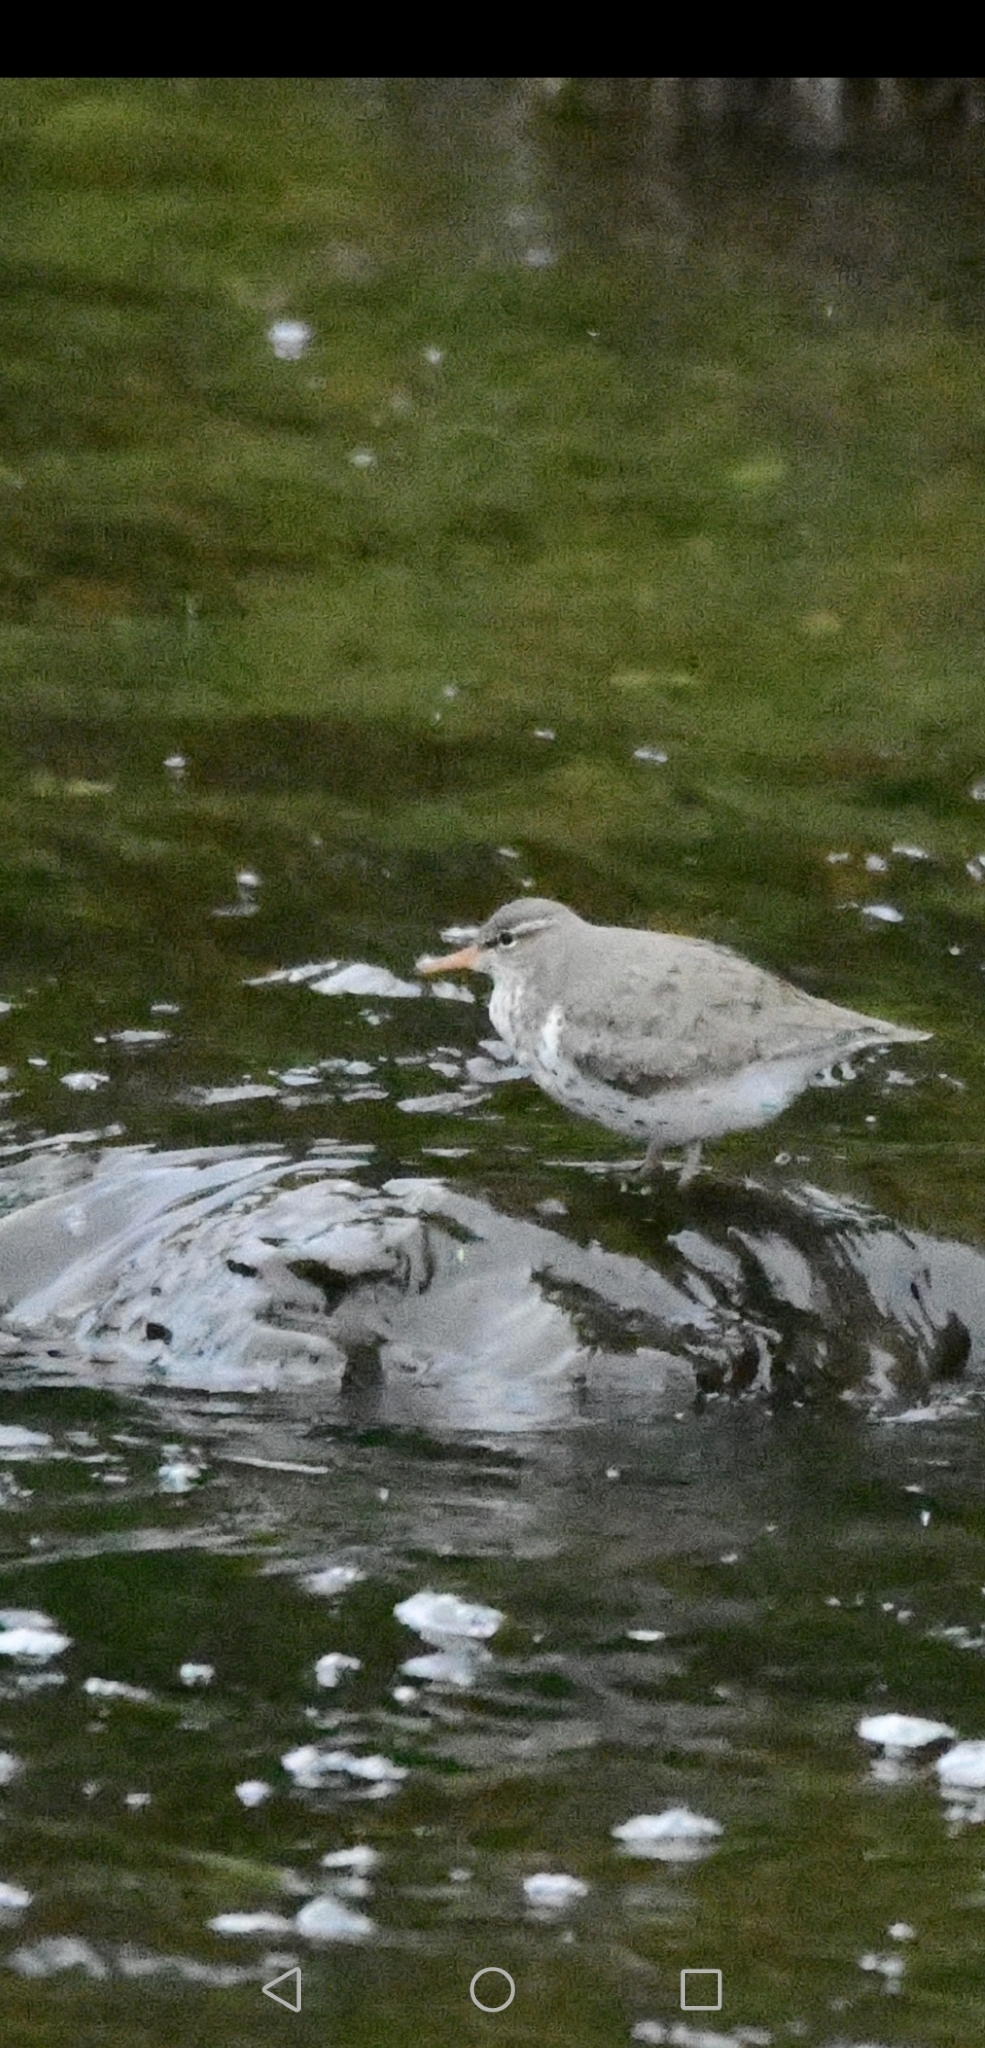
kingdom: Animalia
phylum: Chordata
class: Aves
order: Charadriiformes
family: Scolopacidae
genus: Actitis
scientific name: Actitis macularius
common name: Spotted sandpiper
